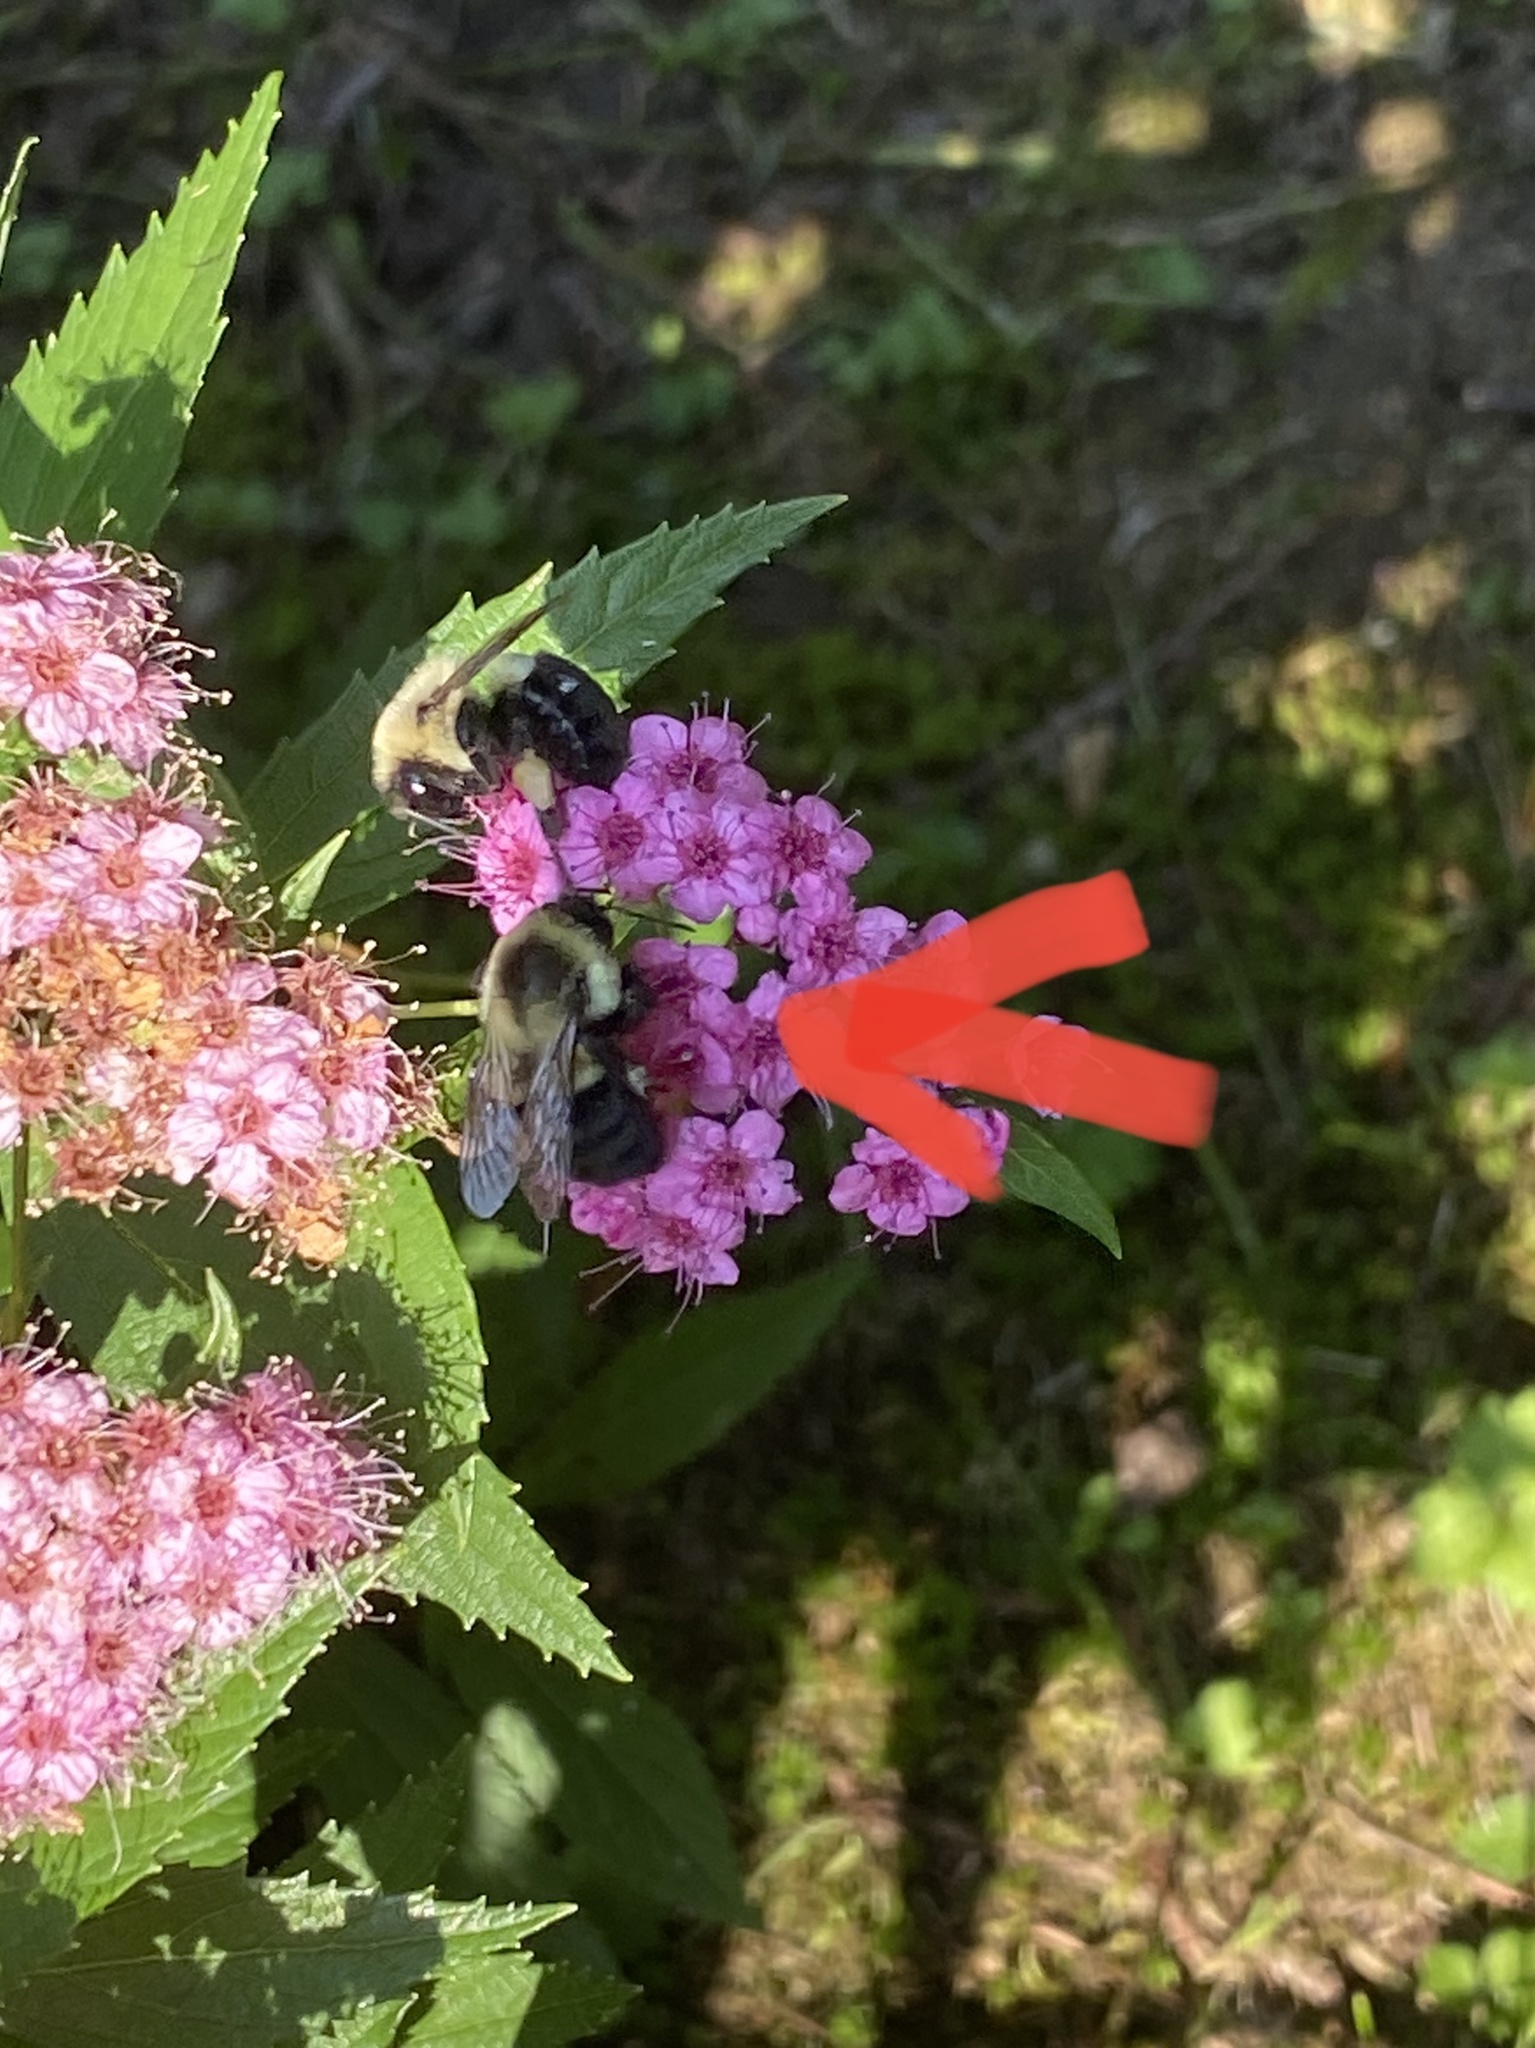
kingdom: Animalia
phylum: Arthropoda
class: Insecta
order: Hymenoptera
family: Apidae
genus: Bombus
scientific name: Bombus impatiens
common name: Common eastern bumble bee
